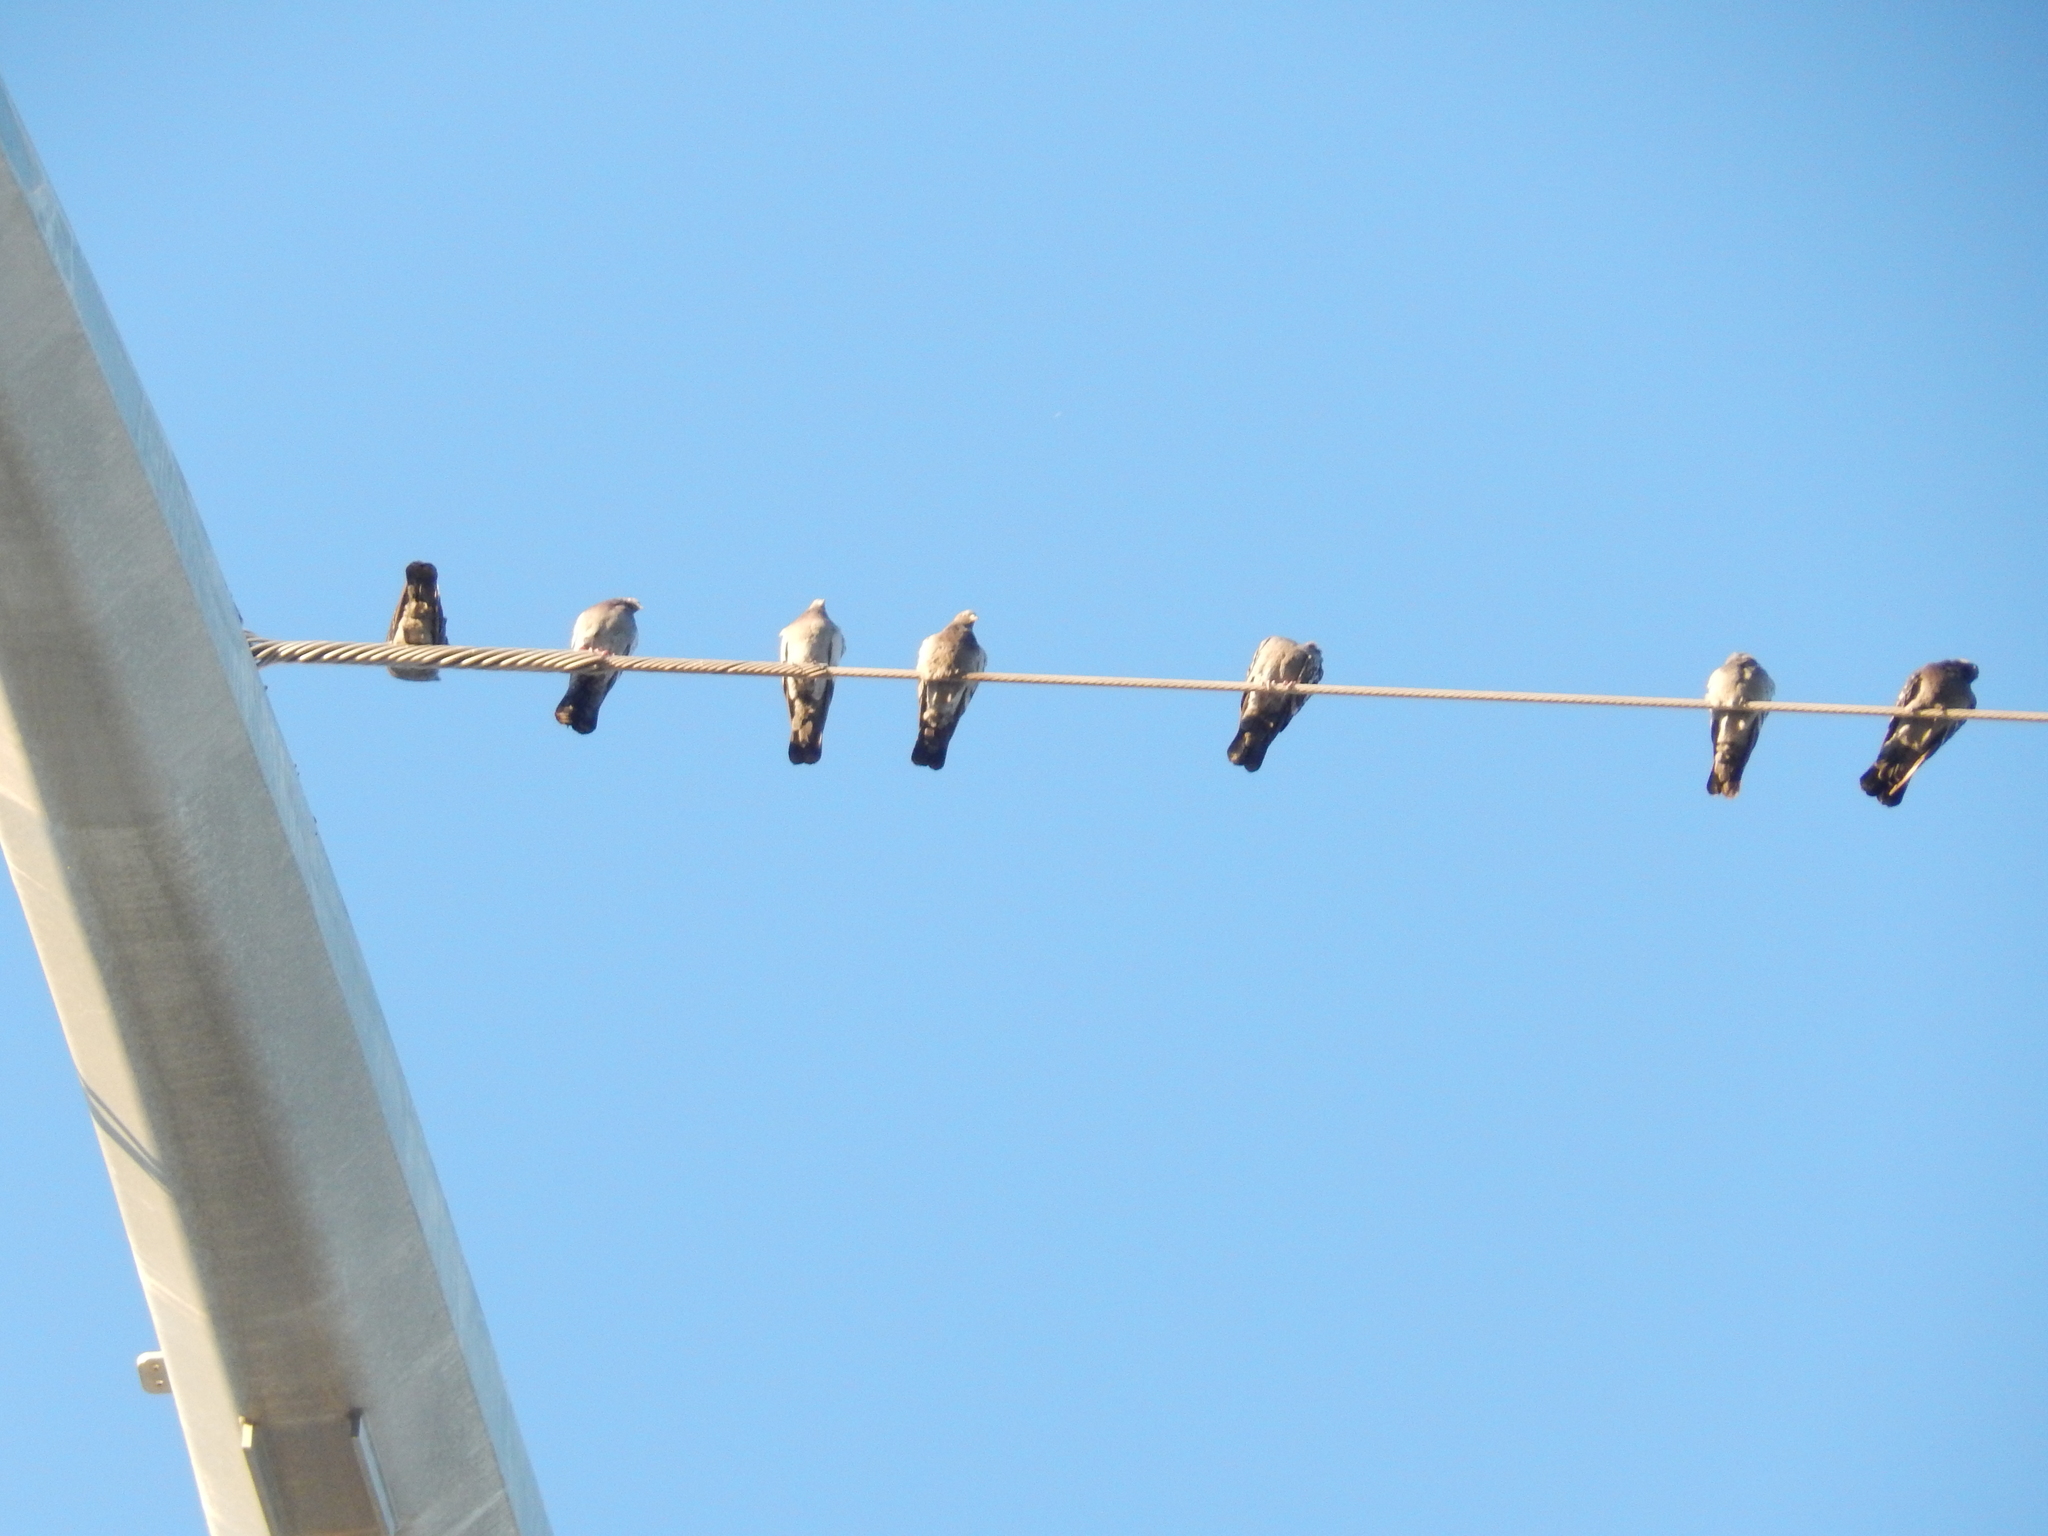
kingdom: Animalia
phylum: Chordata
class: Aves
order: Columbiformes
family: Columbidae
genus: Columba
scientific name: Columba livia
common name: Rock pigeon
